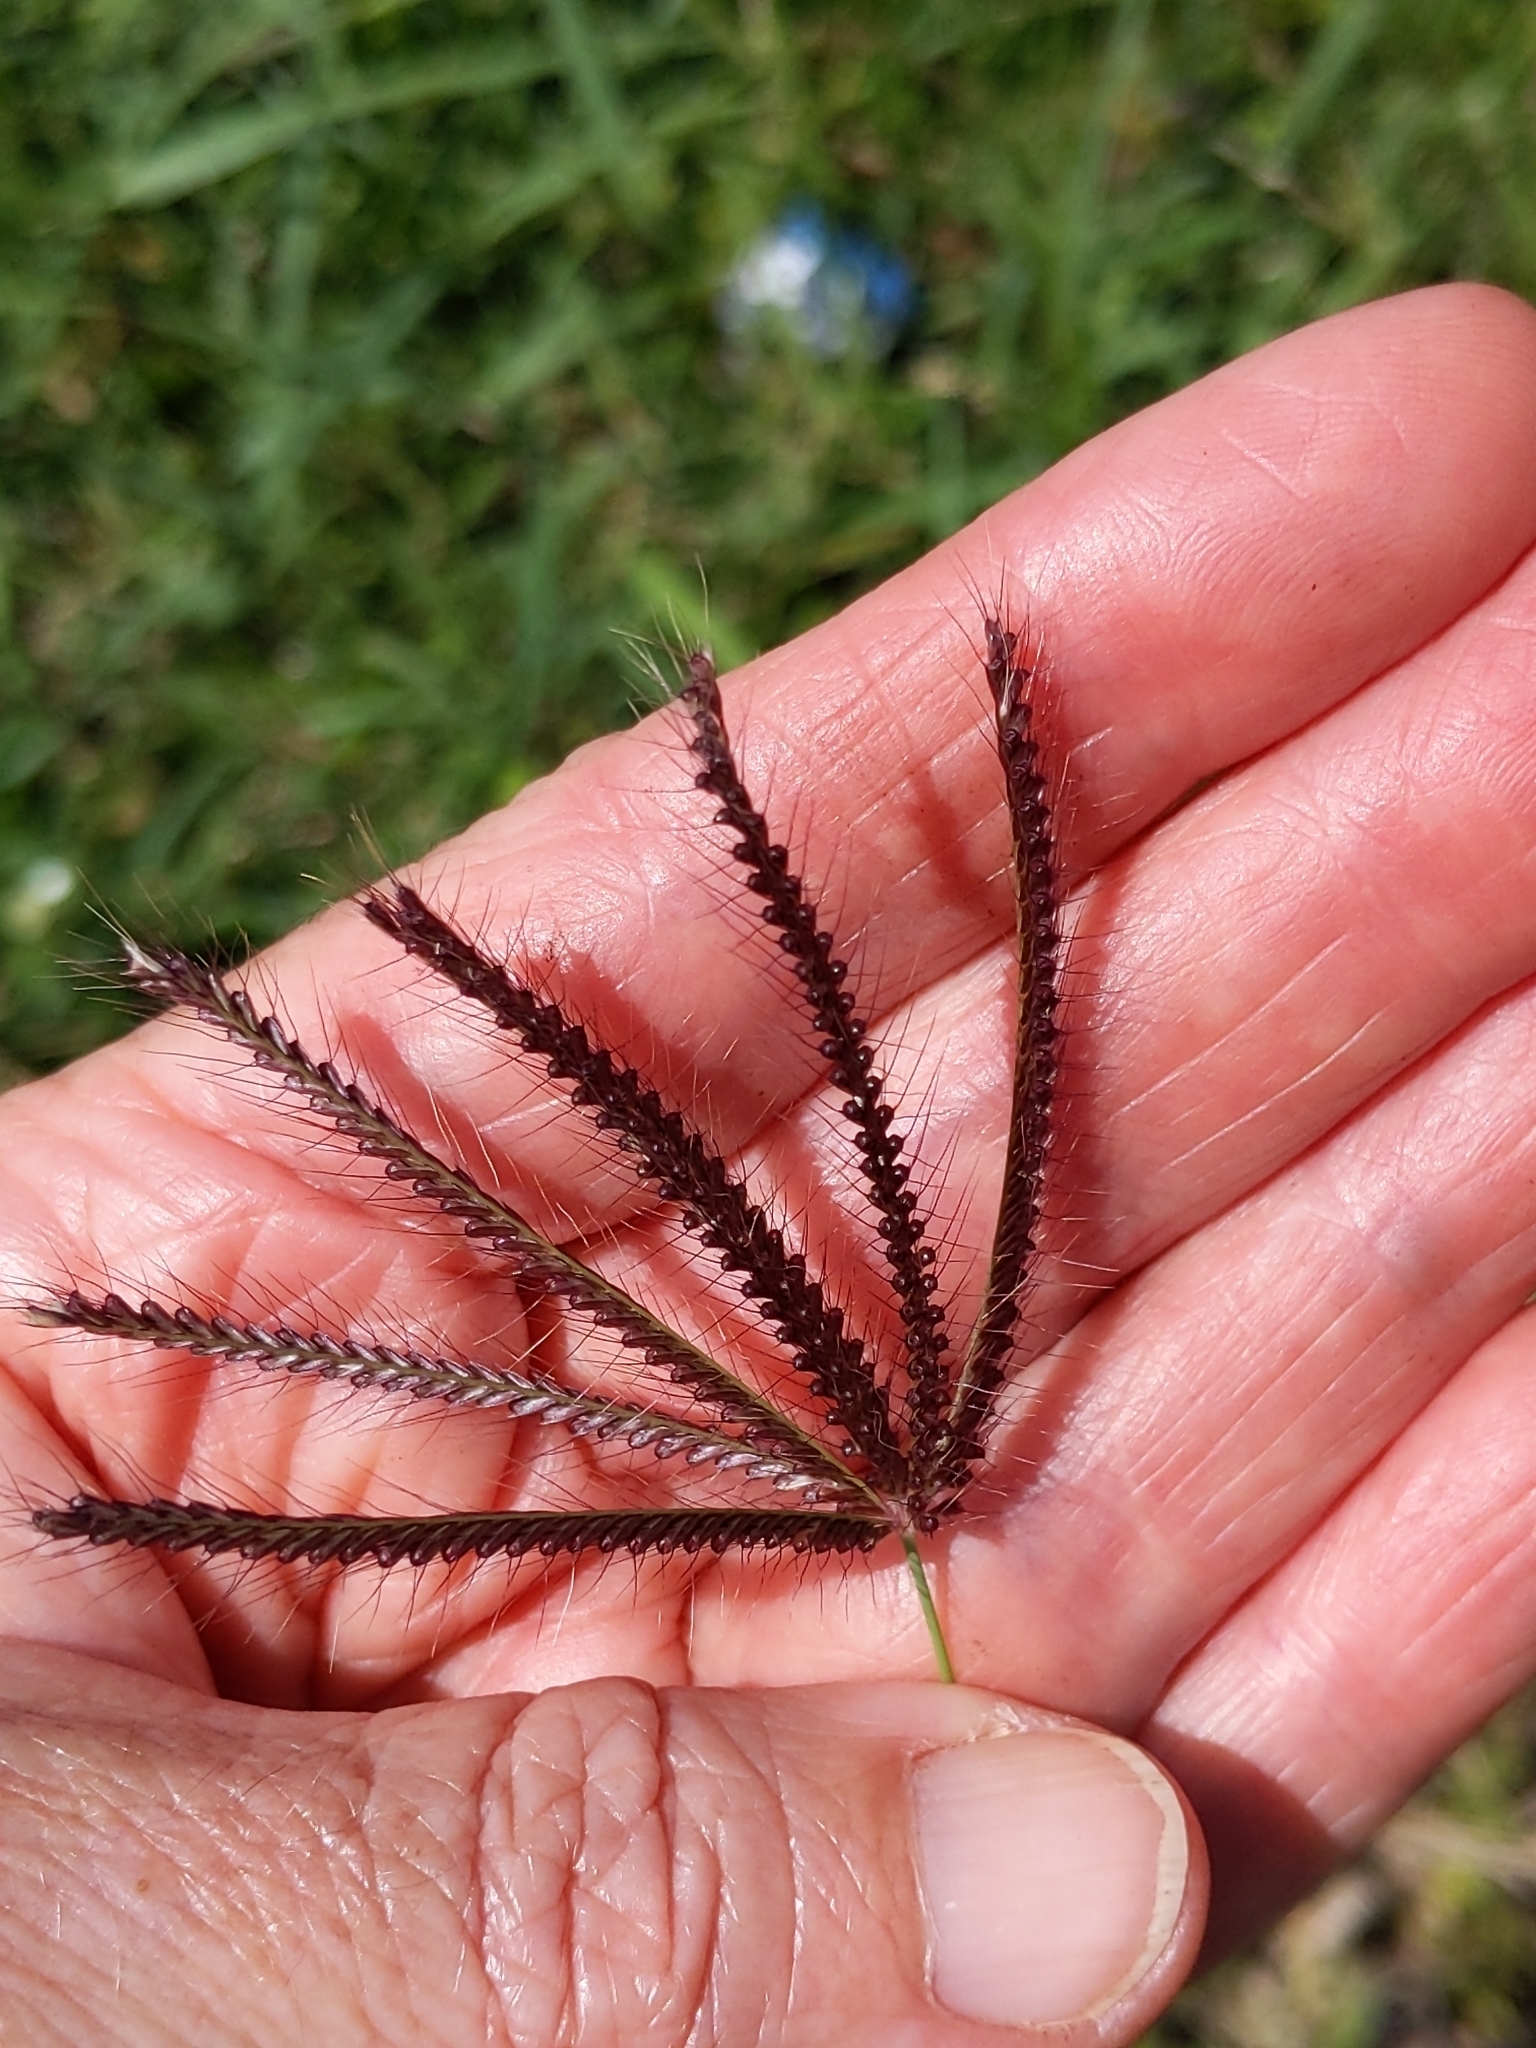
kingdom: Plantae
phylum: Tracheophyta
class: Liliopsida
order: Poales
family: Poaceae
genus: Chloris
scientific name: Chloris barbata
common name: Swollen fingergrass
